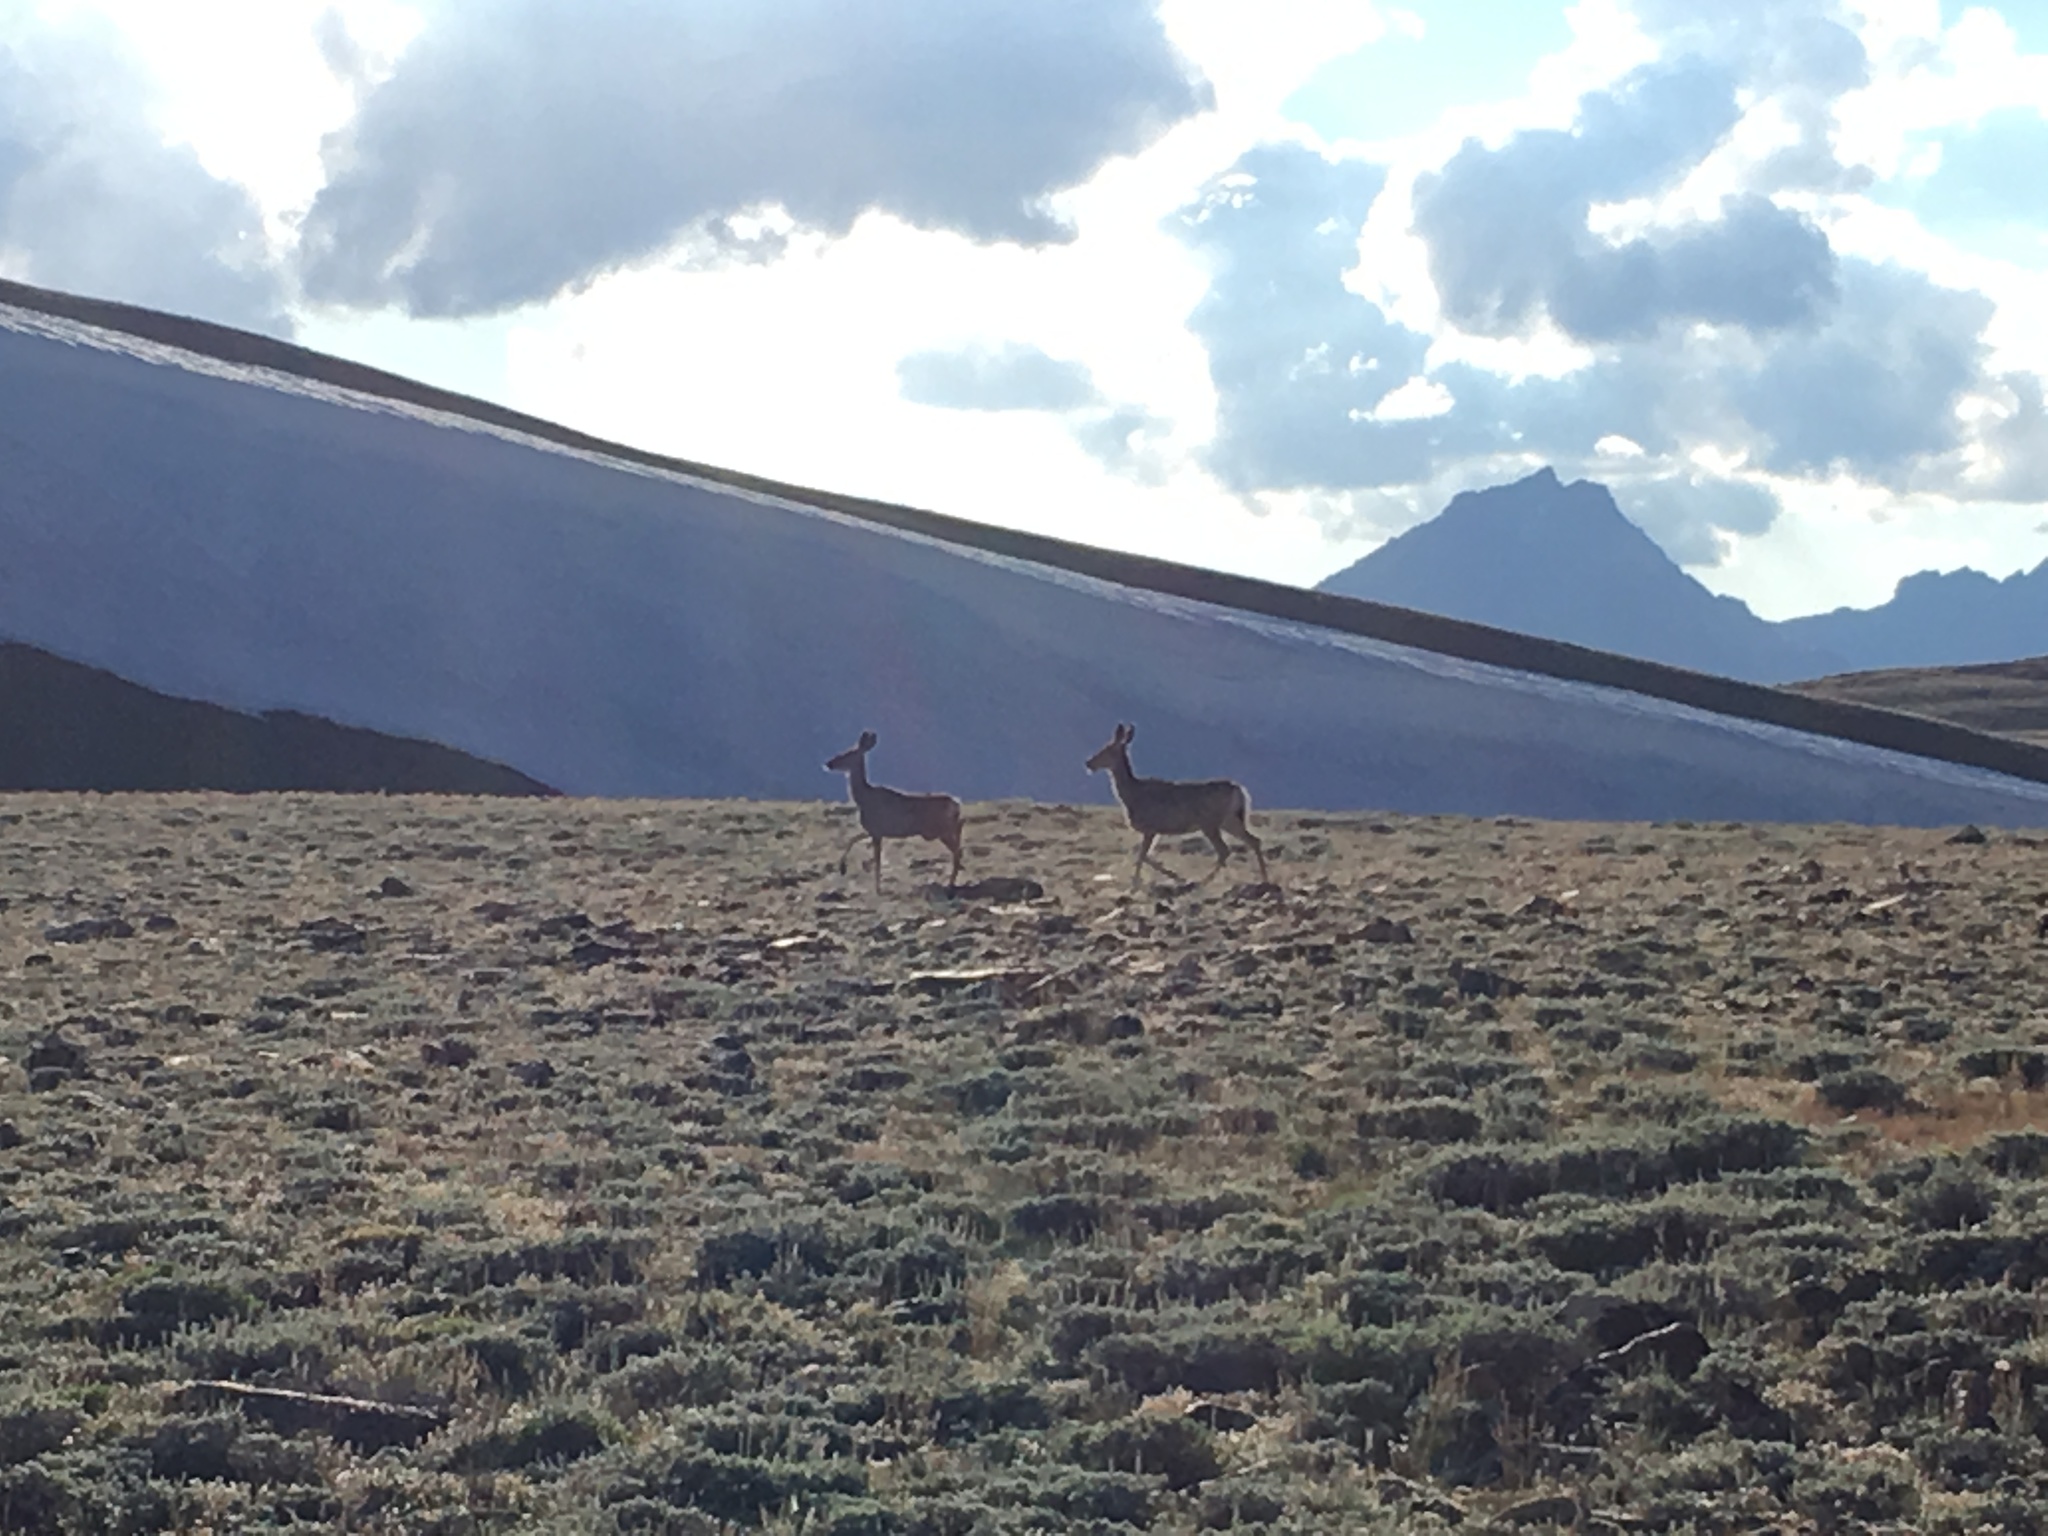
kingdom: Animalia
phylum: Chordata
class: Mammalia
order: Artiodactyla
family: Cervidae
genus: Odocoileus
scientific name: Odocoileus hemionus
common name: Mule deer
